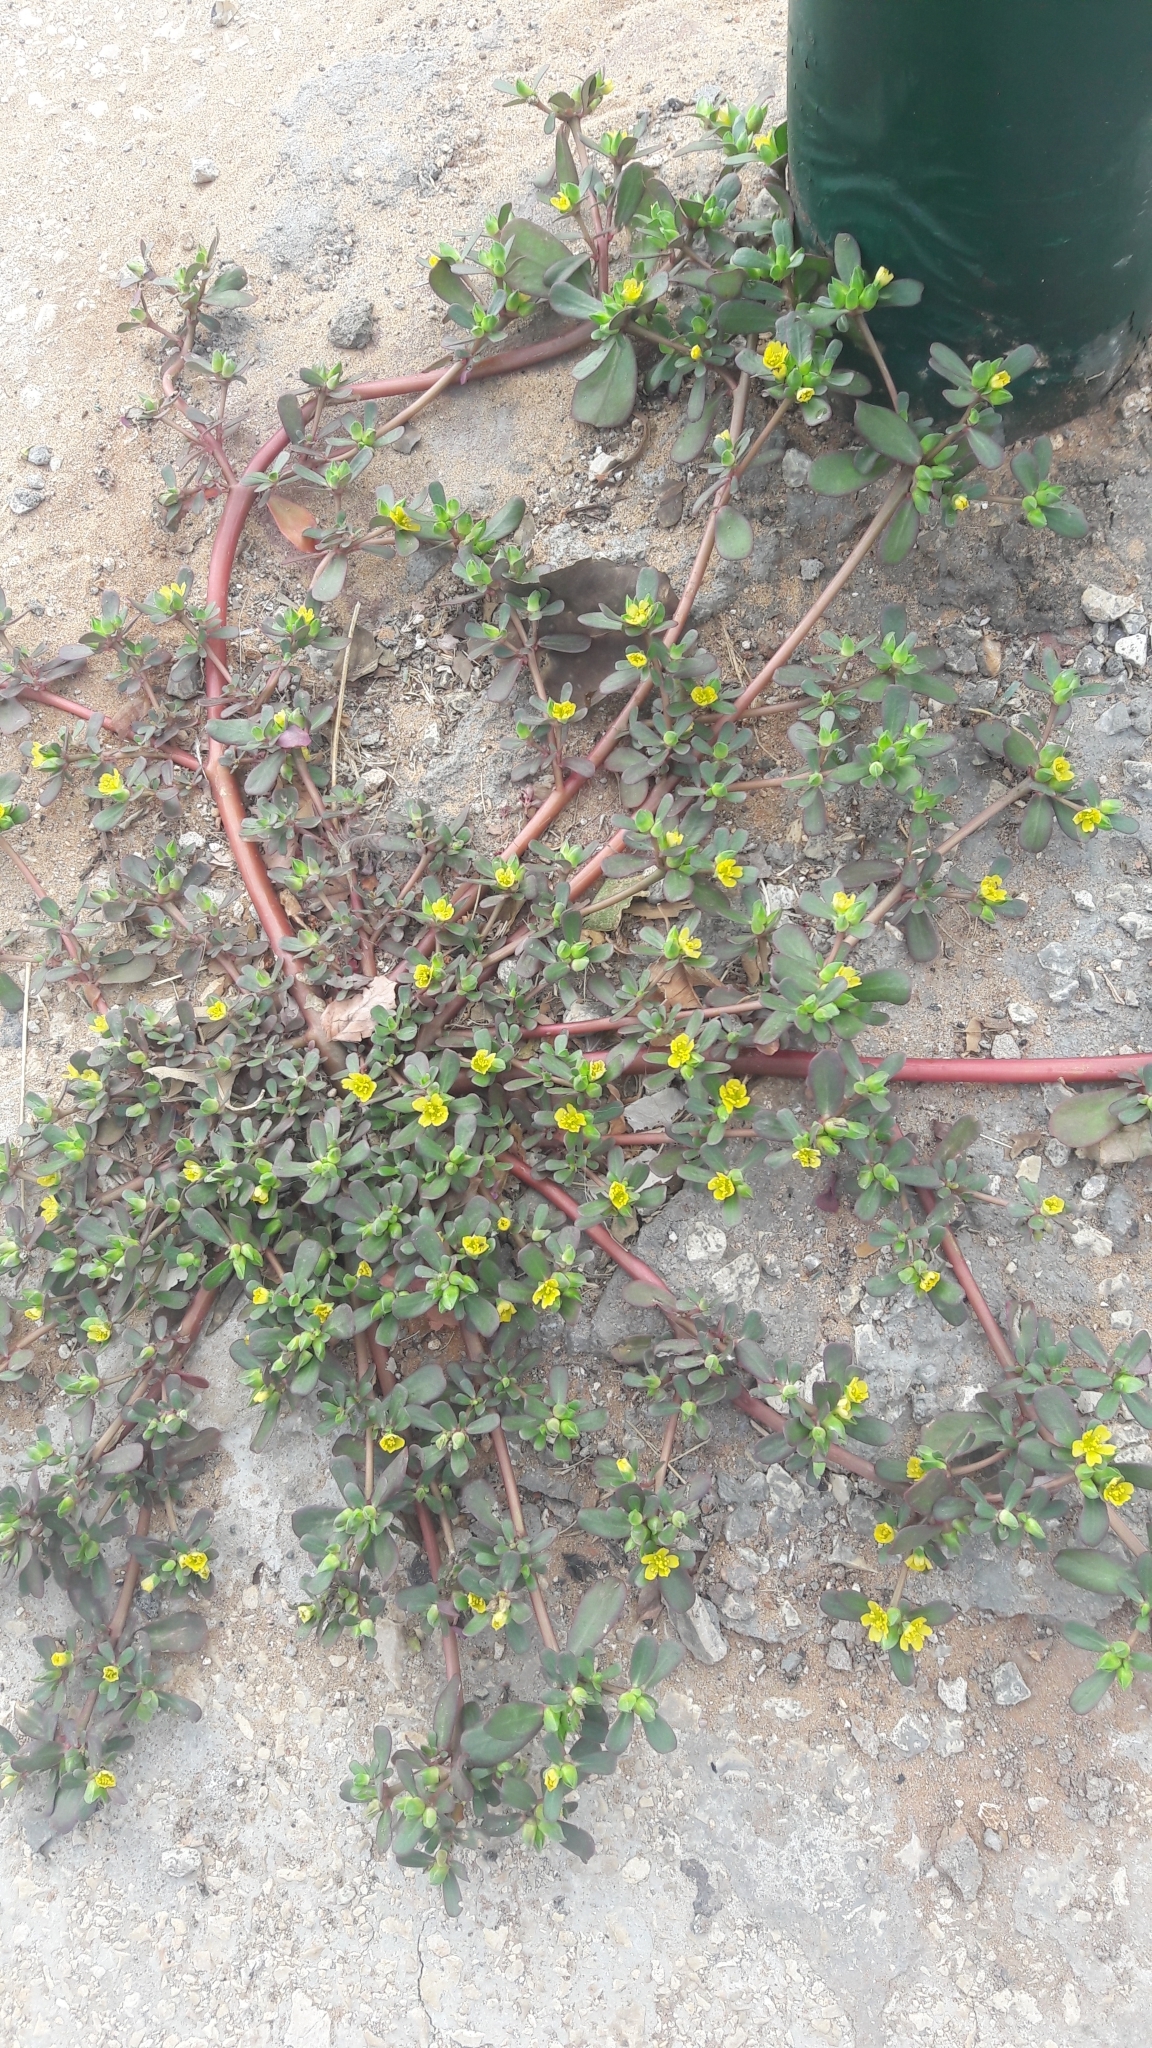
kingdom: Plantae
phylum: Tracheophyta
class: Magnoliopsida
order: Caryophyllales
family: Portulacaceae
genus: Portulaca
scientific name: Portulaca oleracea
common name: Common purslane
